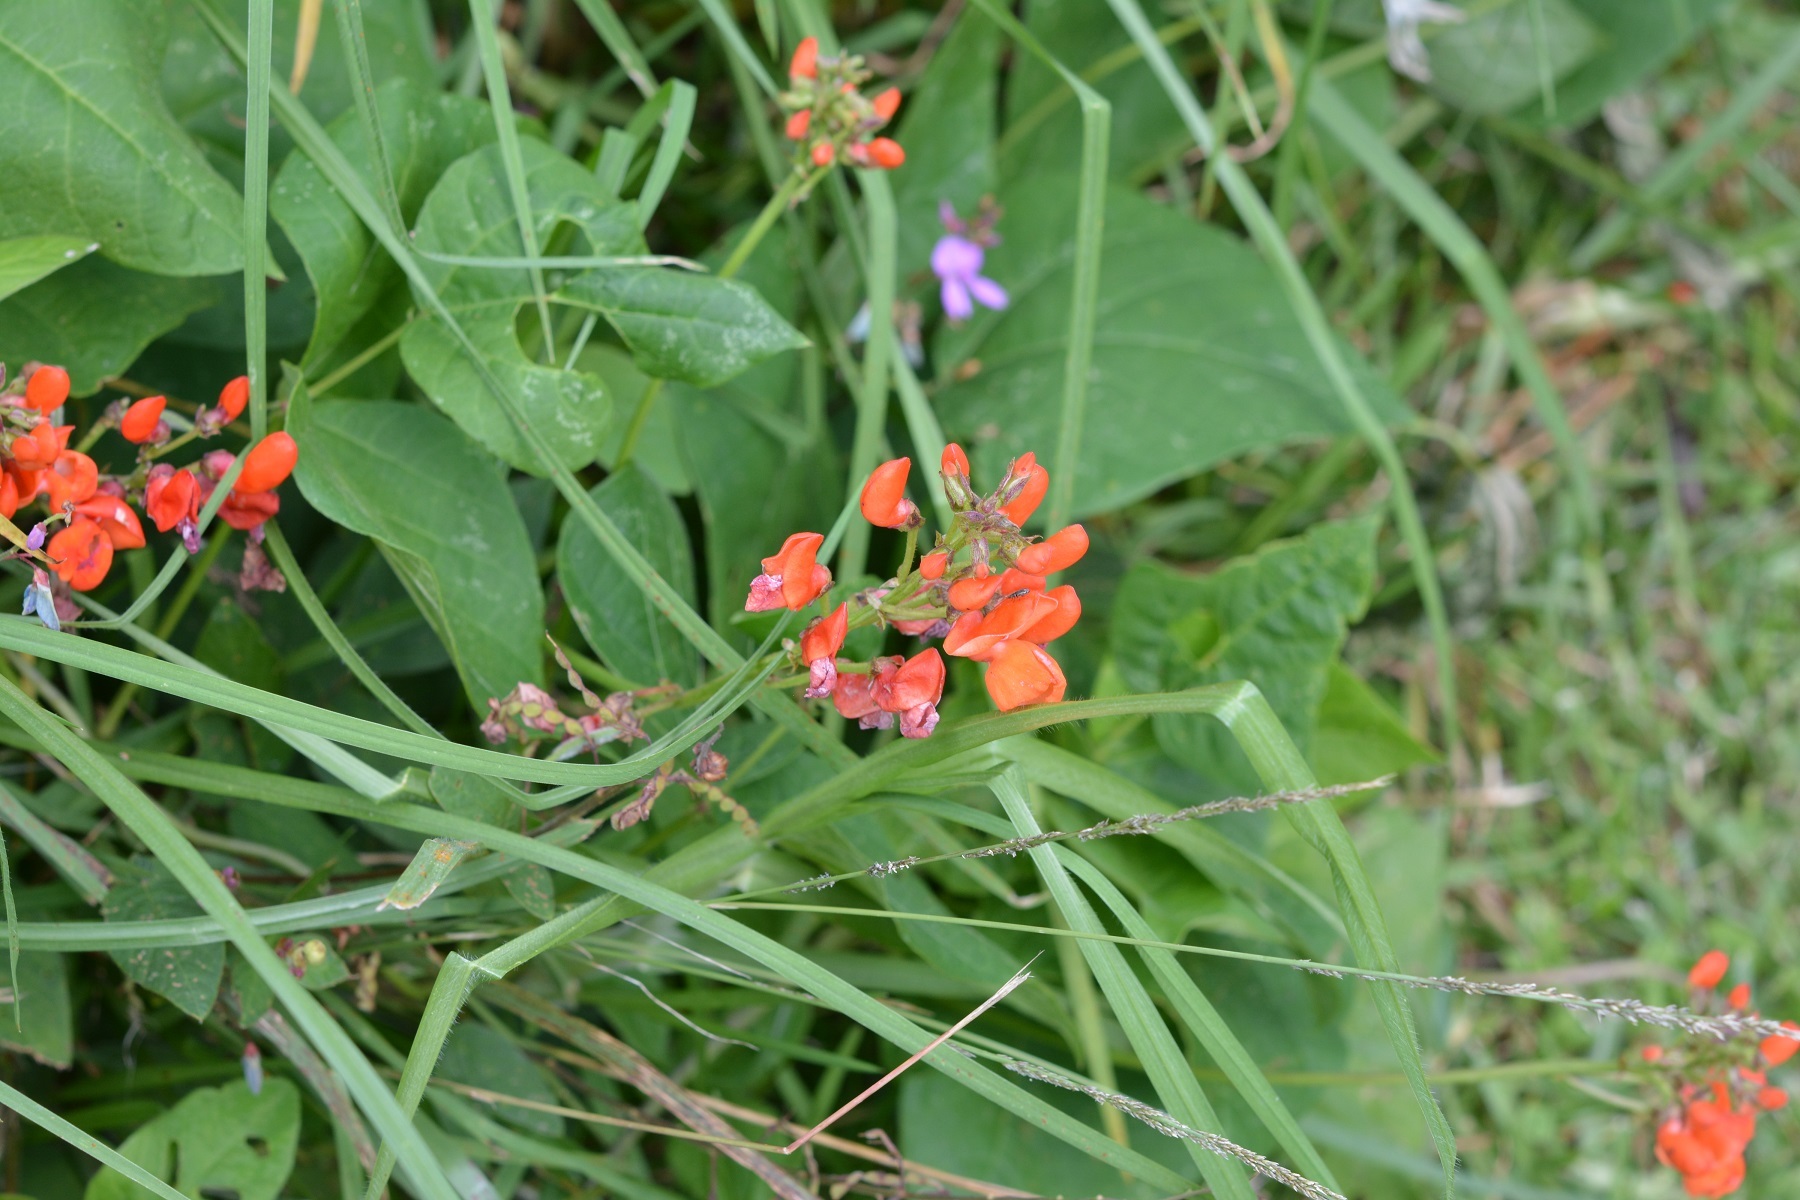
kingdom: Plantae
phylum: Tracheophyta
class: Magnoliopsida
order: Fabales
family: Fabaceae
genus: Phaseolus
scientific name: Phaseolus coccineus
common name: Runner bean
